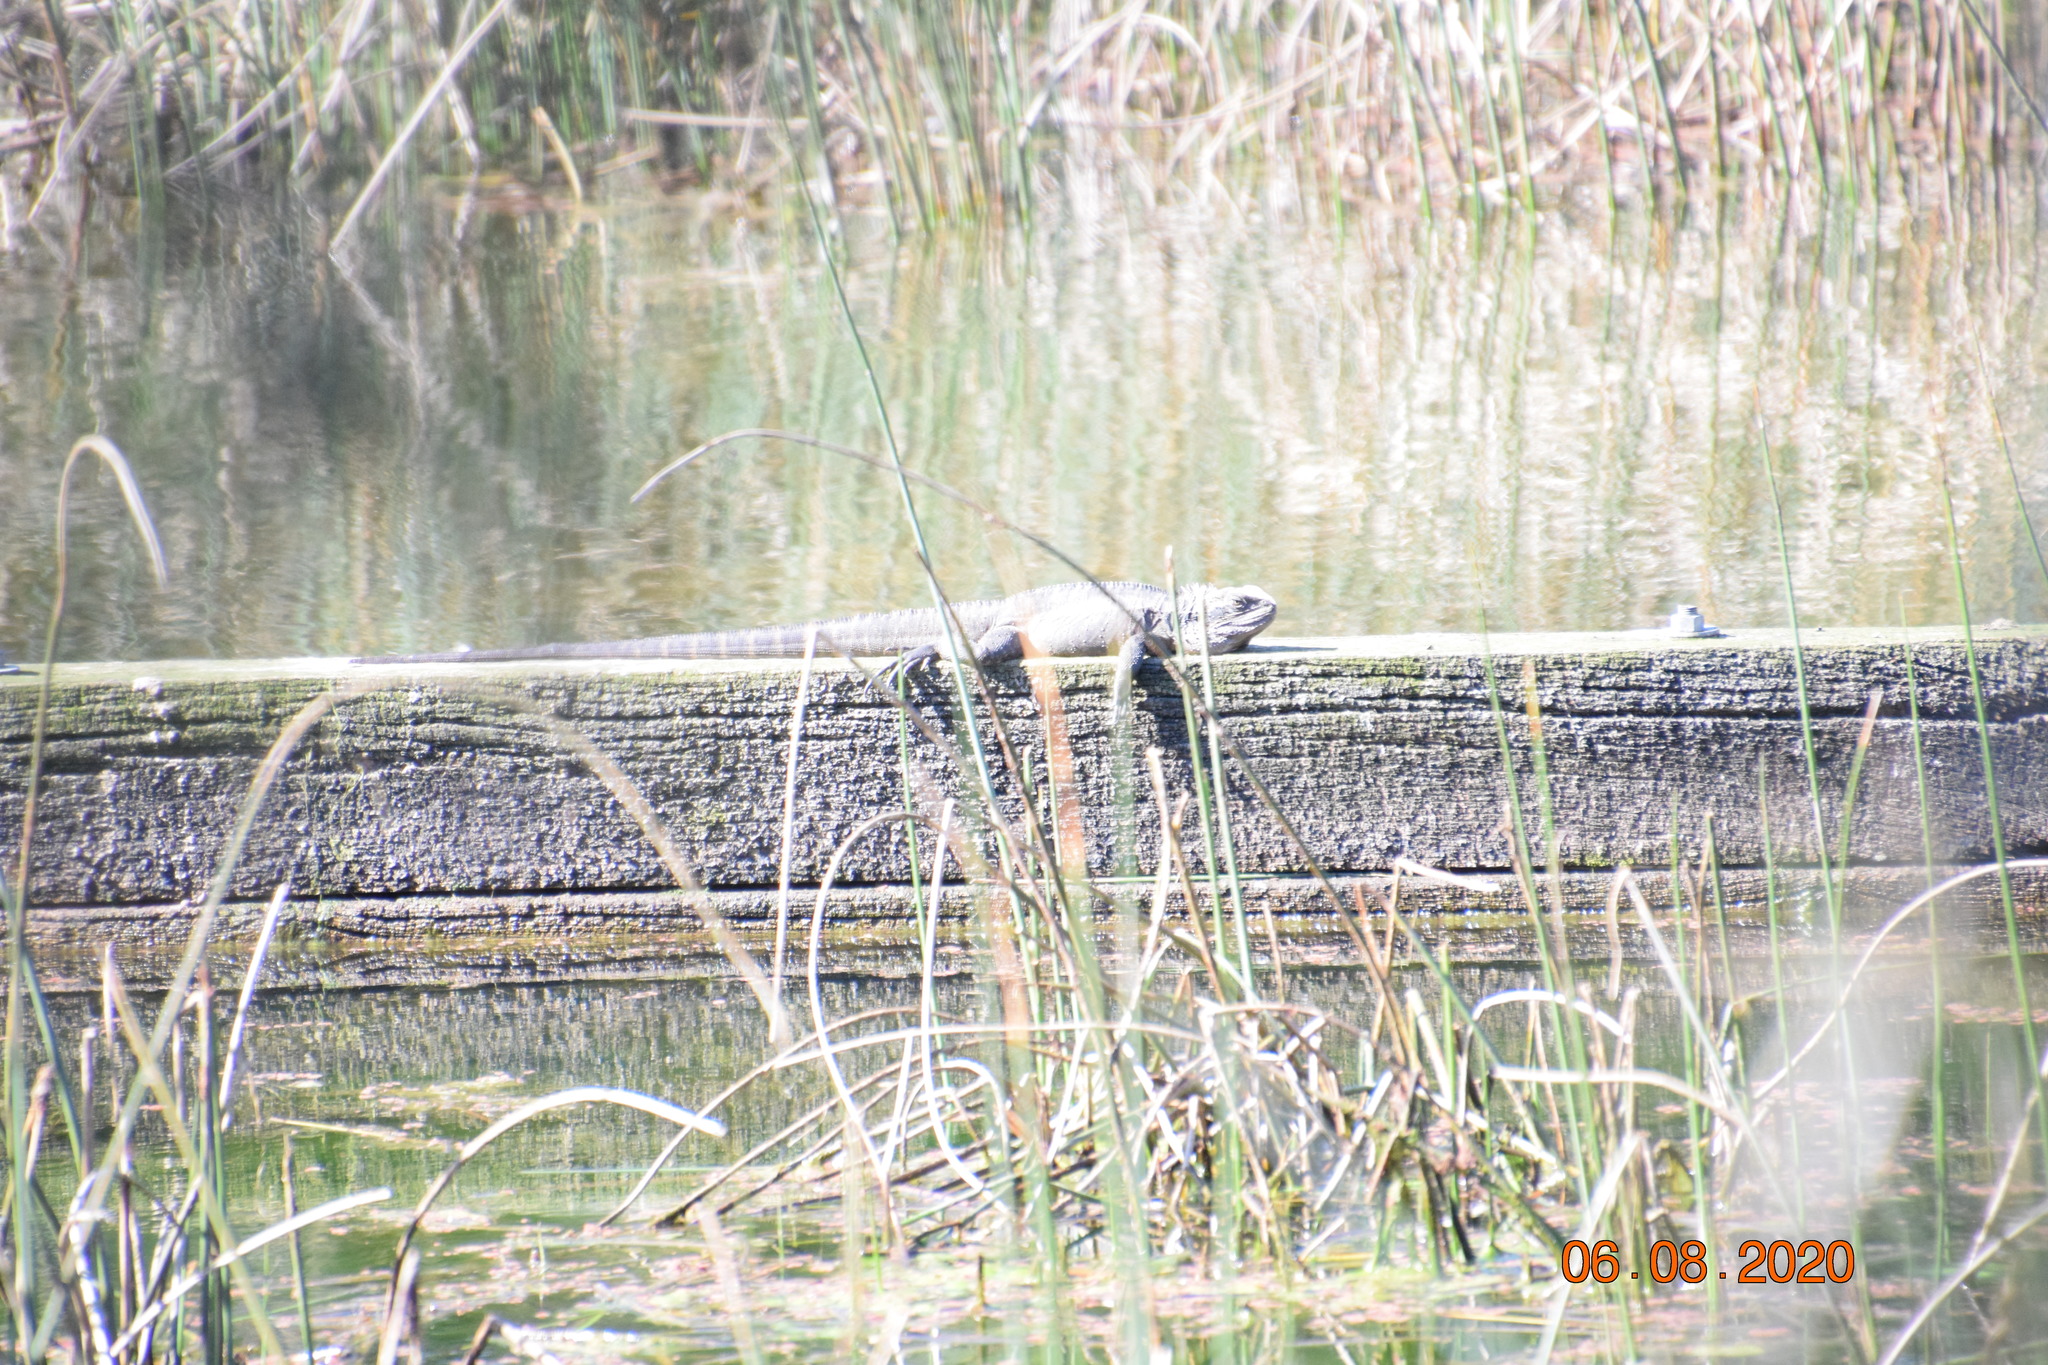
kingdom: Animalia
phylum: Chordata
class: Squamata
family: Agamidae
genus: Intellagama
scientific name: Intellagama lesueurii
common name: Eastern water dragon
